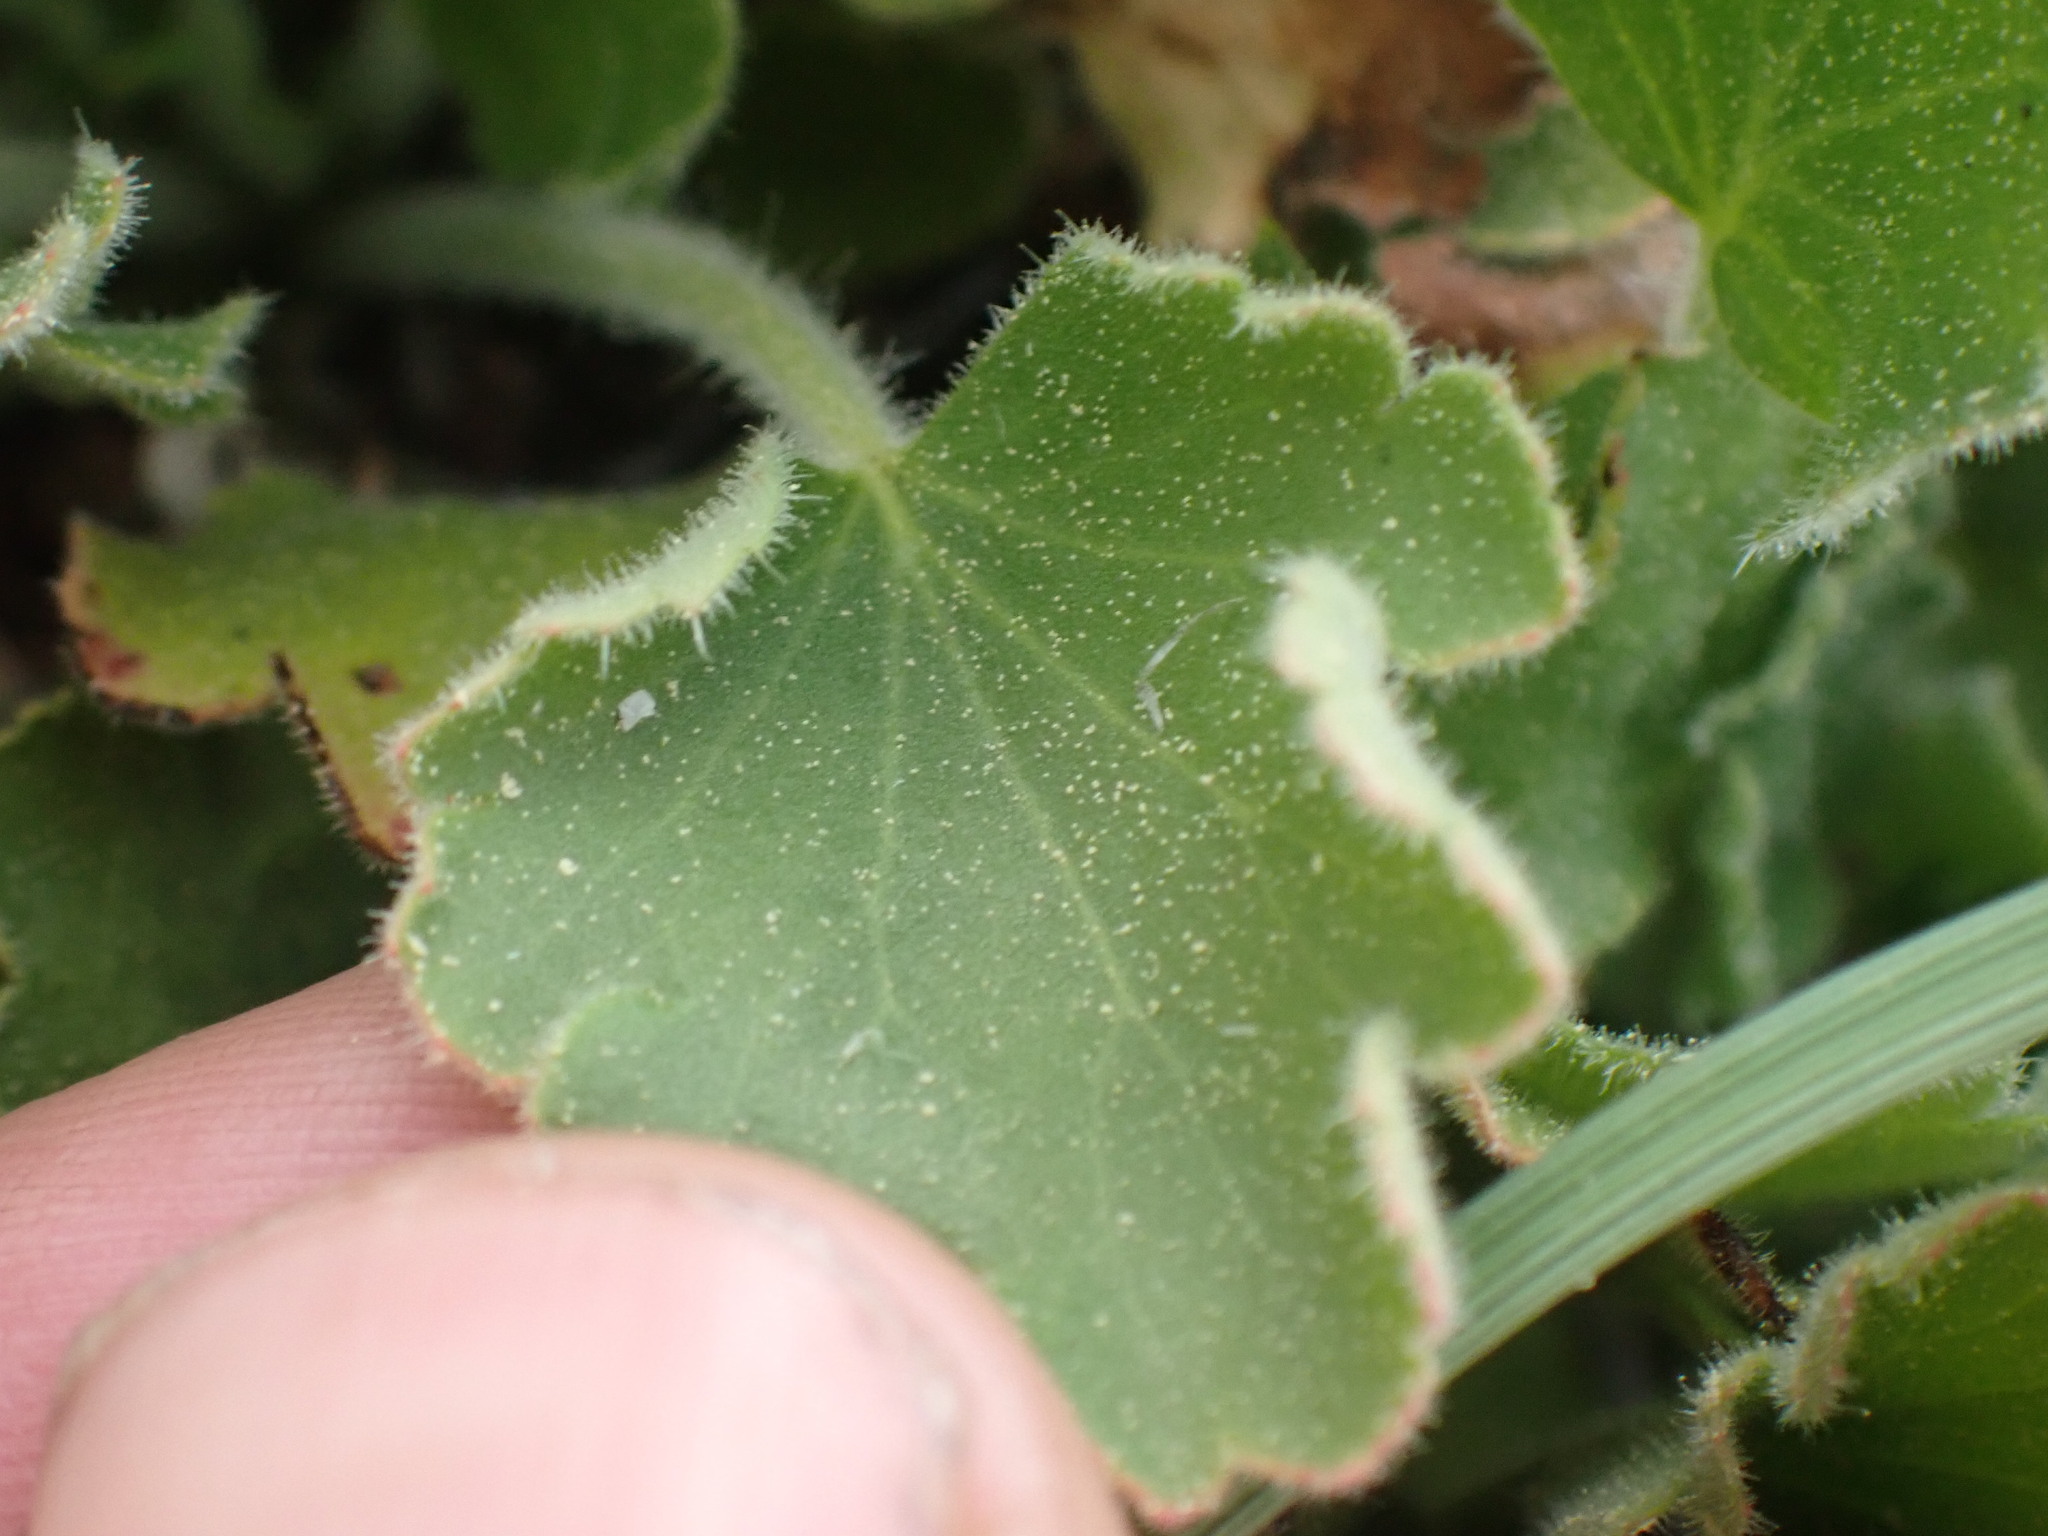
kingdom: Plantae
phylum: Tracheophyta
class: Magnoliopsida
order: Saxifragales
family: Saxifragaceae
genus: Heuchera
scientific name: Heuchera cylindrica
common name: Mat alumroot
